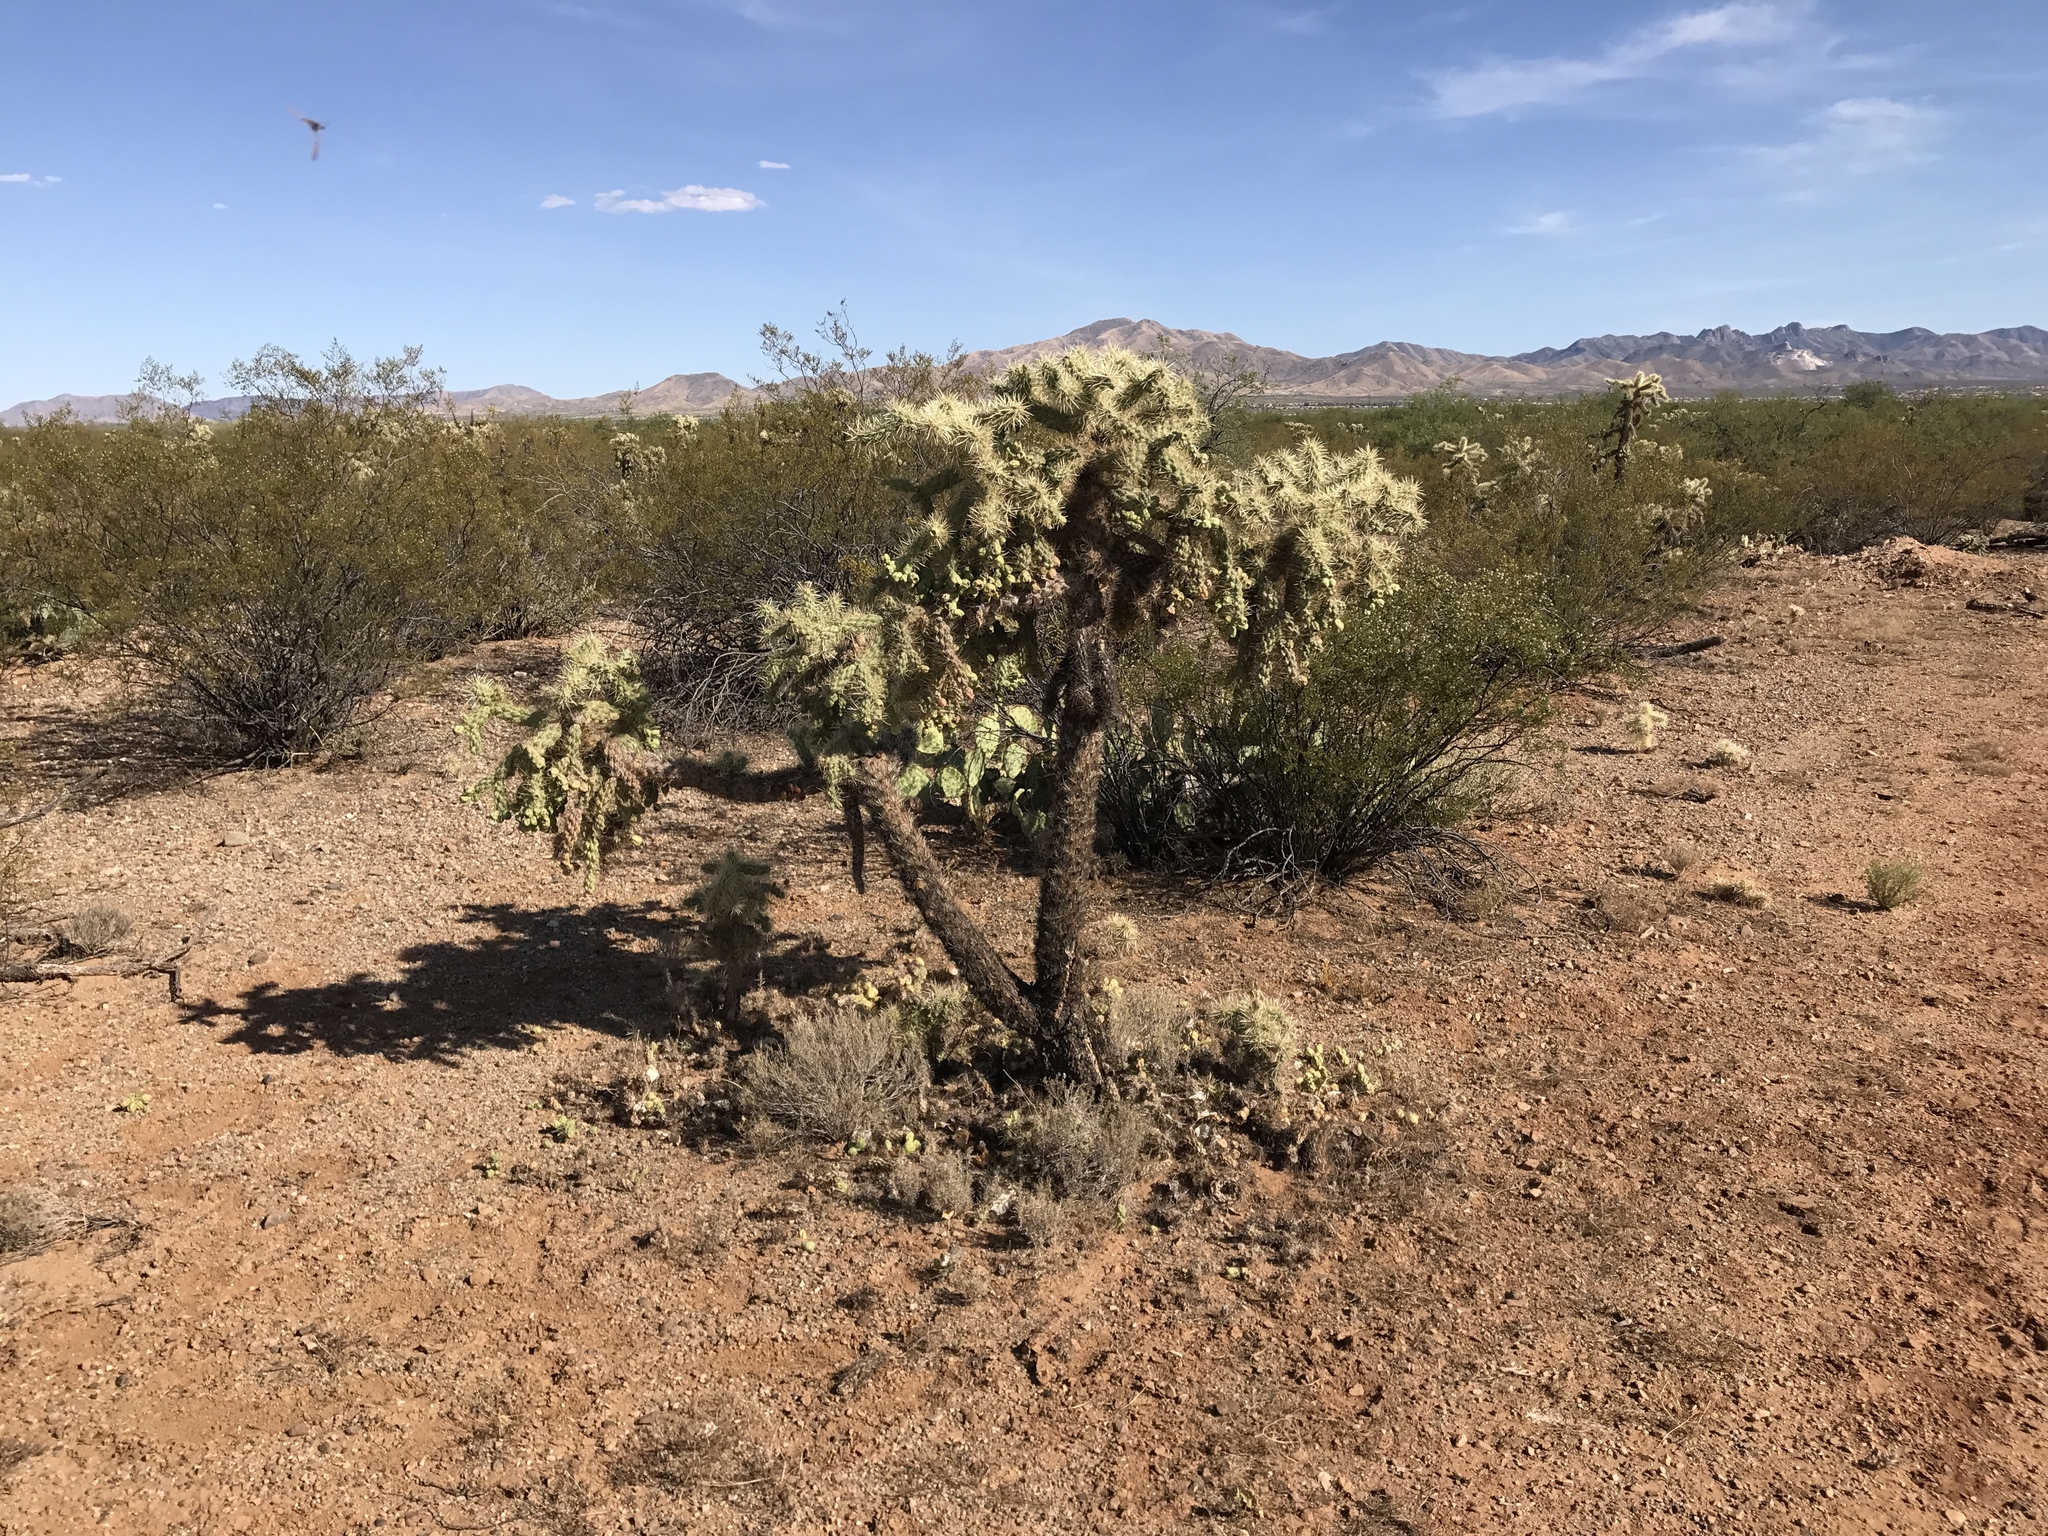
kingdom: Plantae
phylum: Tracheophyta
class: Magnoliopsida
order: Caryophyllales
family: Cactaceae
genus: Cylindropuntia
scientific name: Cylindropuntia fulgida
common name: Jumping cholla
